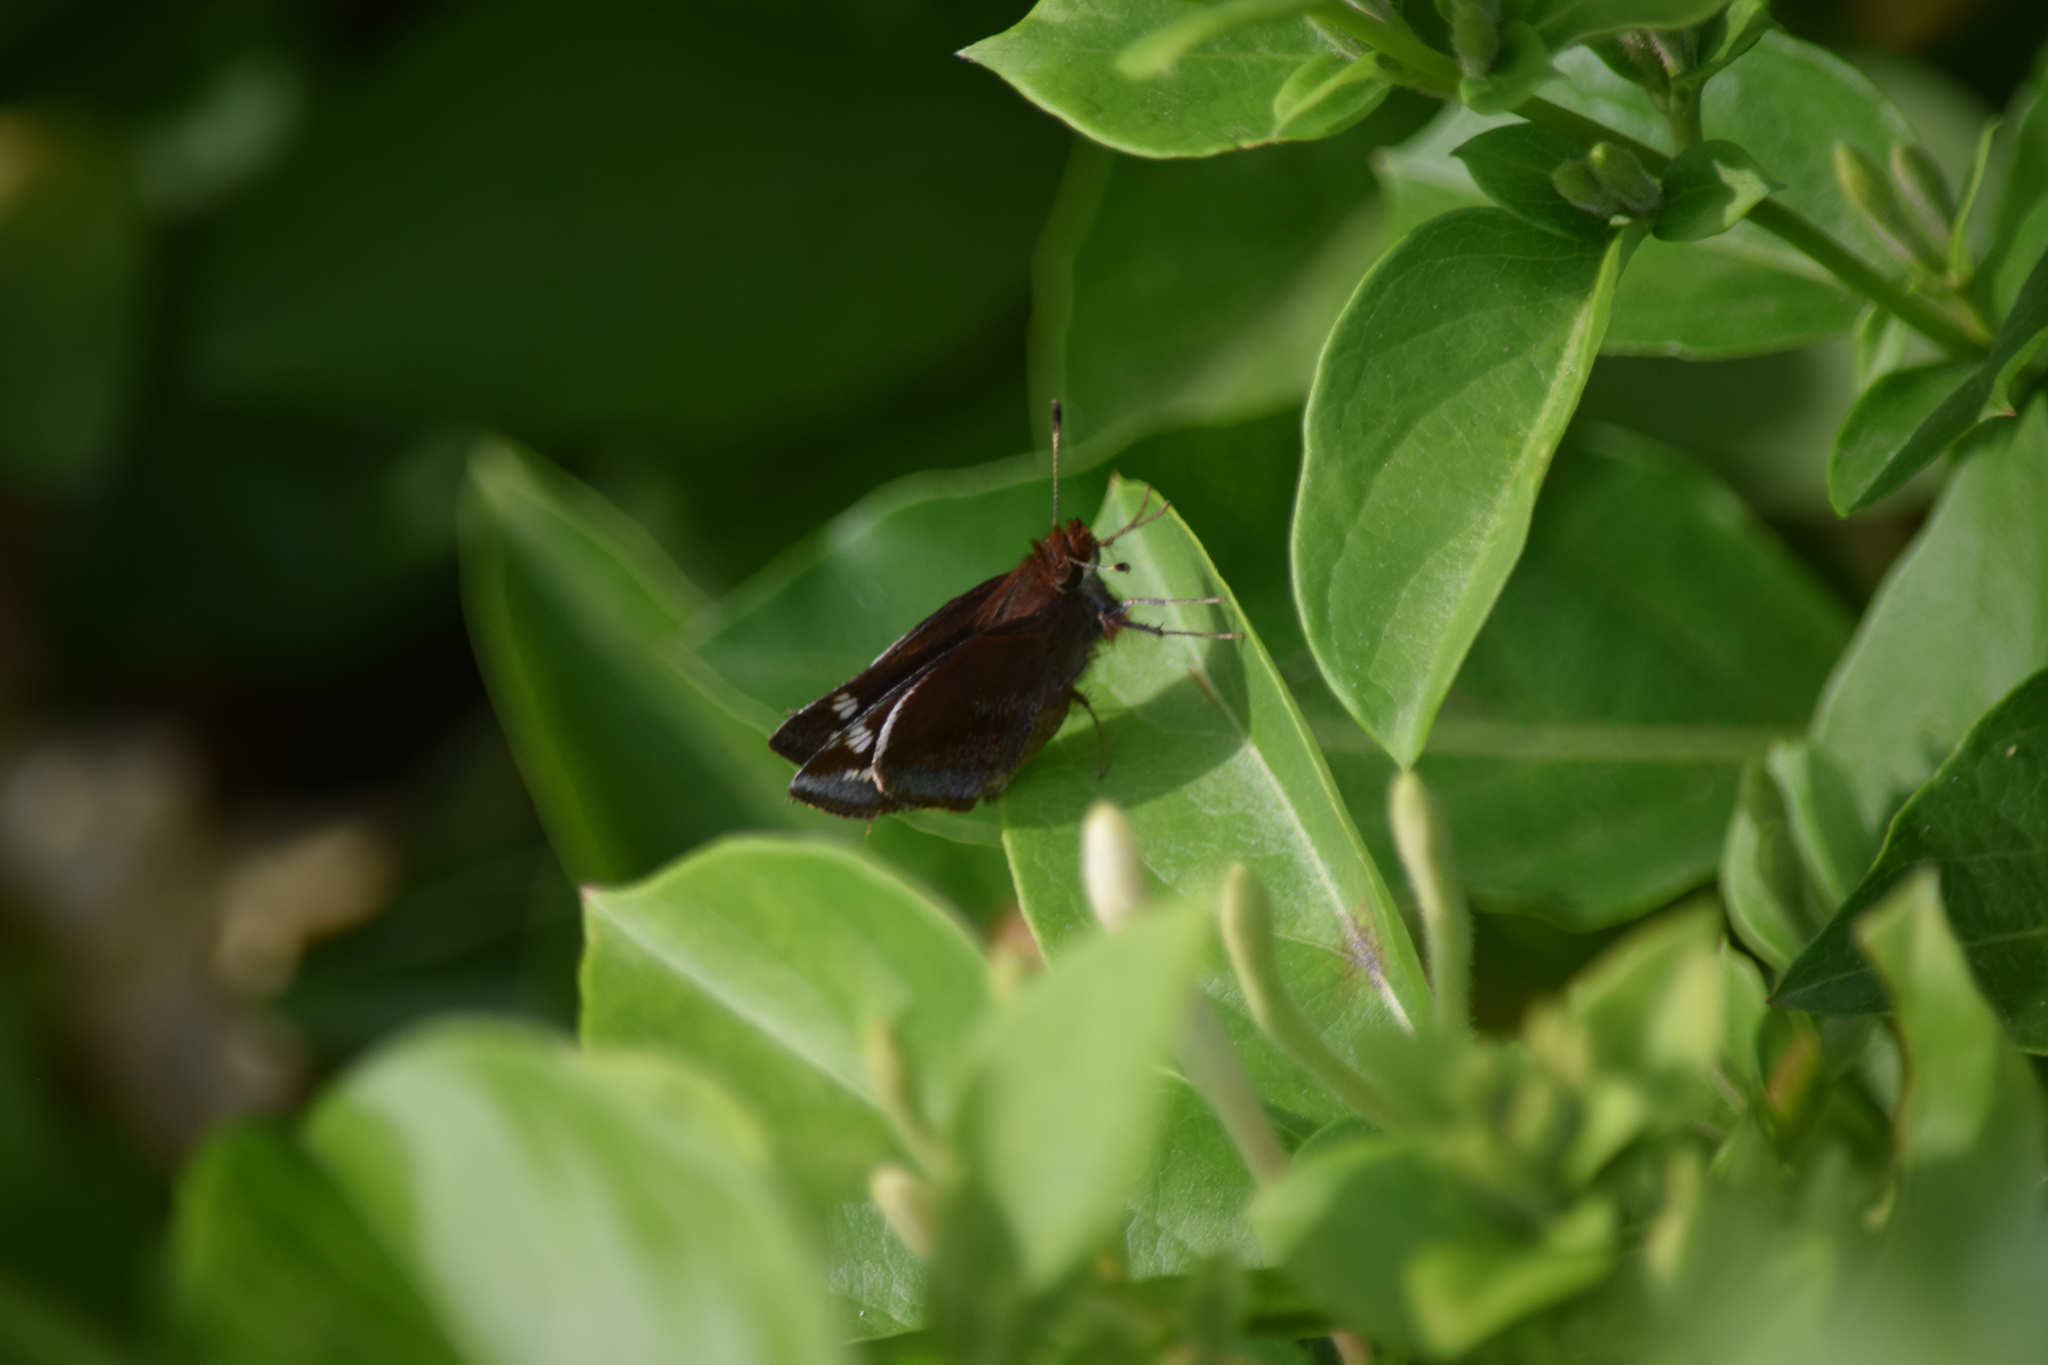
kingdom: Animalia
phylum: Arthropoda
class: Insecta
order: Lepidoptera
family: Hesperiidae
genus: Lon
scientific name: Lon zabulon
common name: Zabulon skipper
